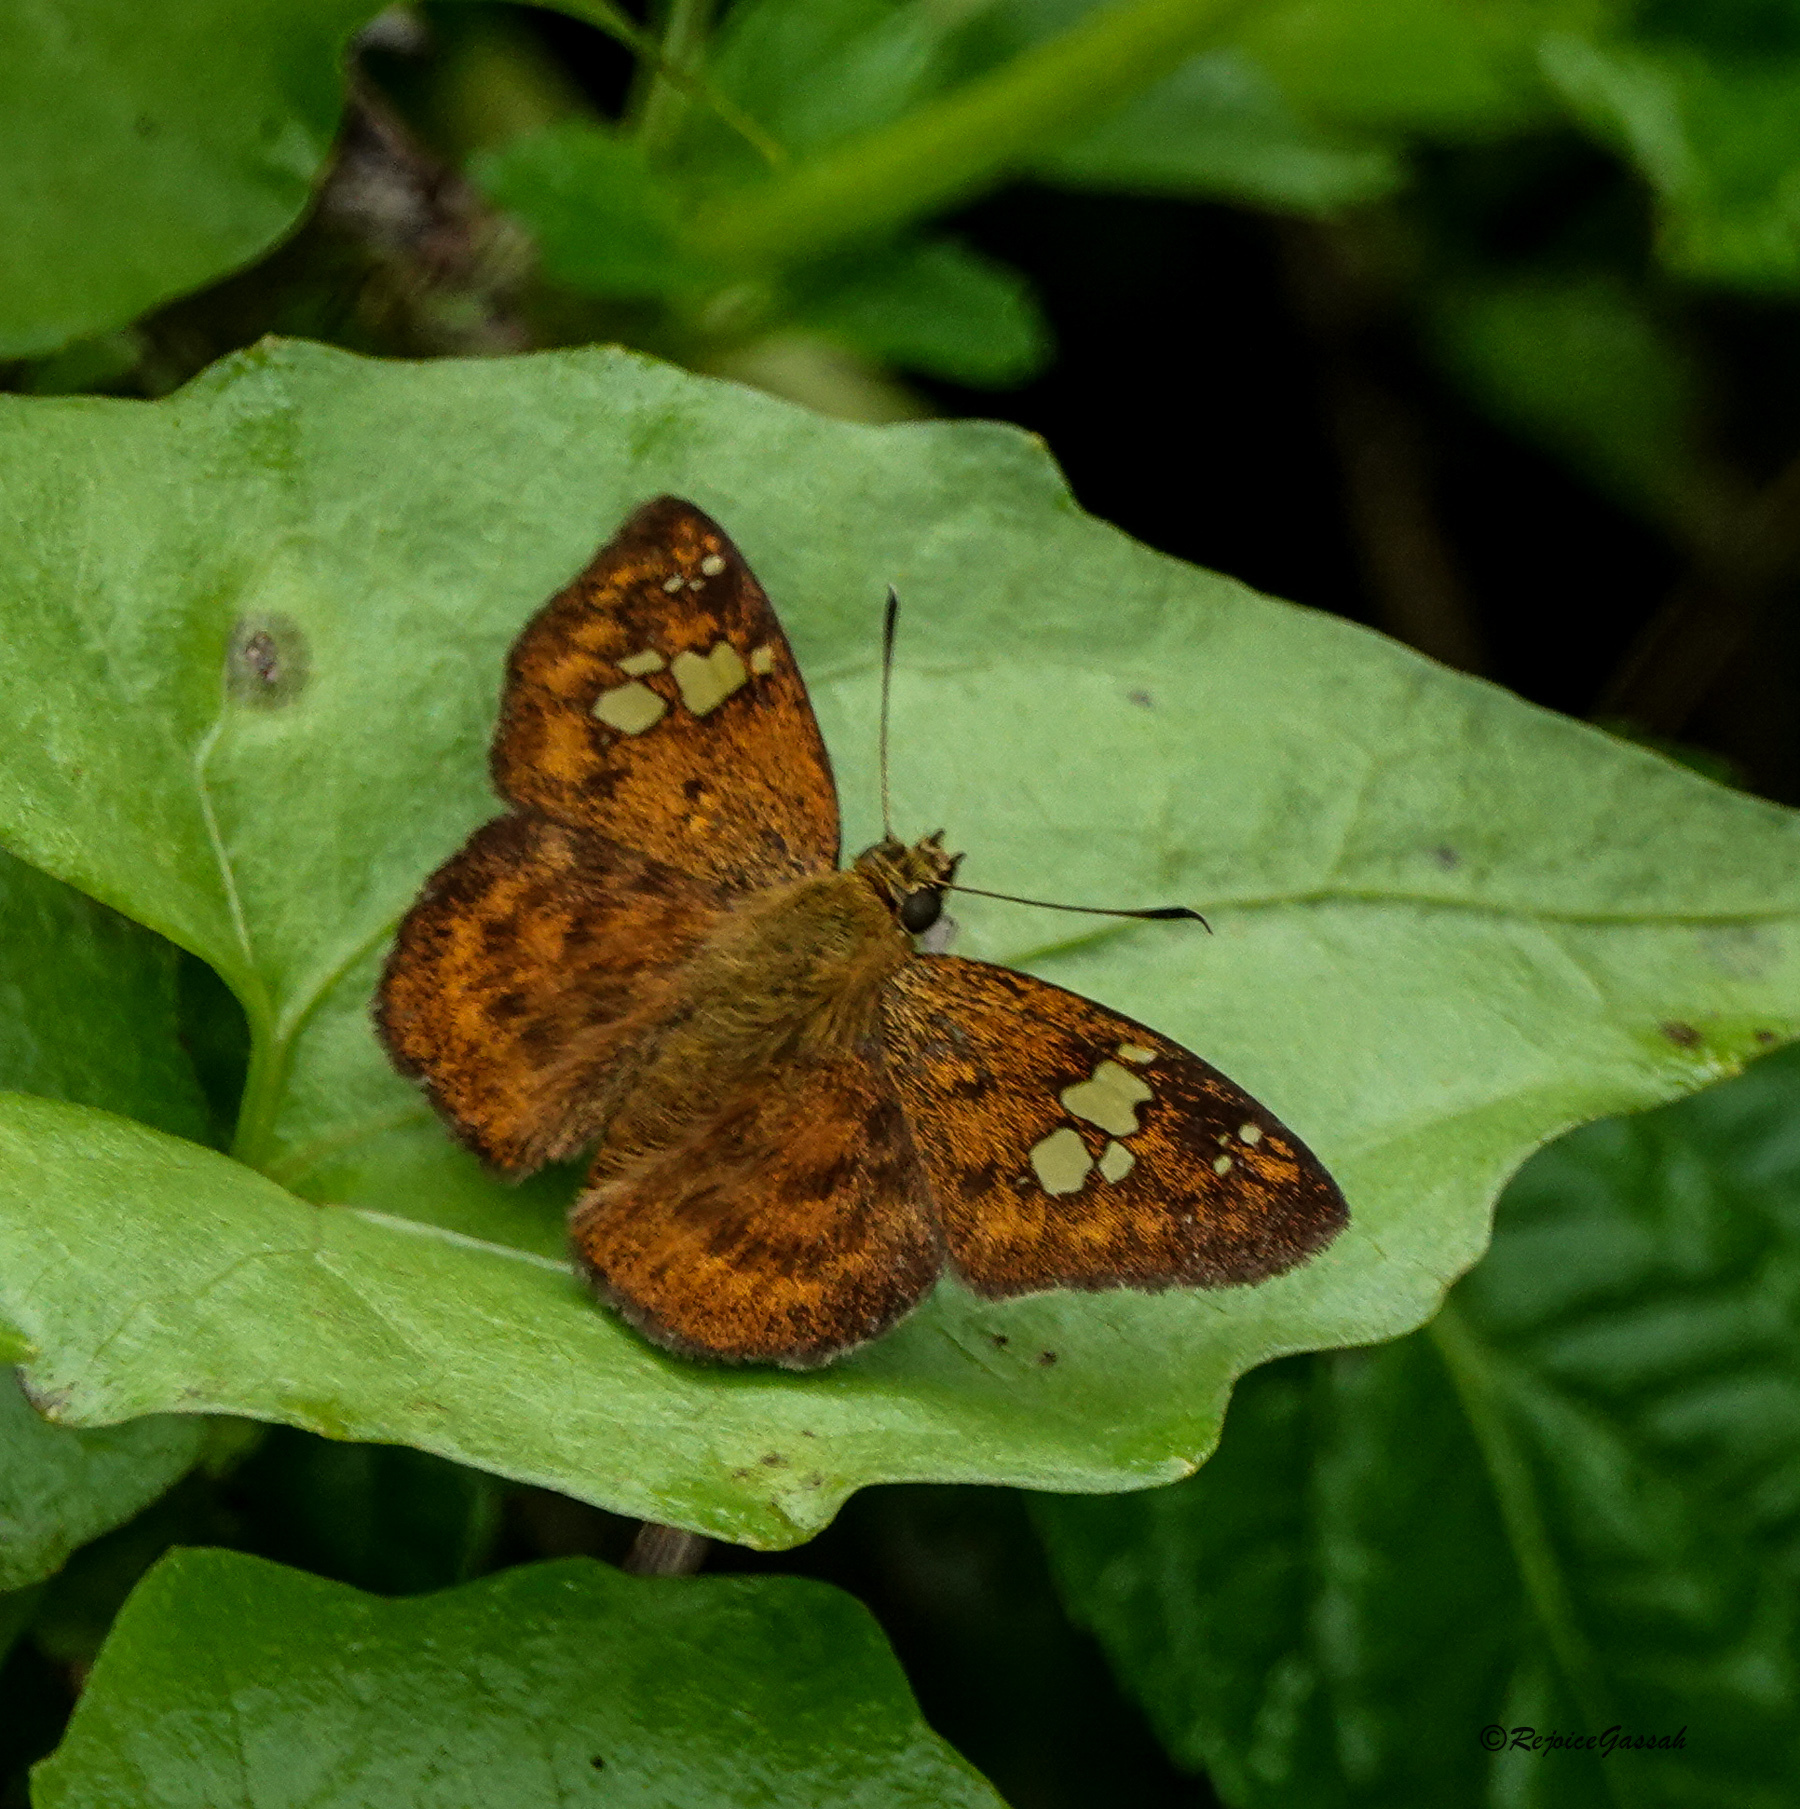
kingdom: Animalia
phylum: Arthropoda
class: Insecta
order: Lepidoptera
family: Hesperiidae
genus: Pseudocoladenia
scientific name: Pseudocoladenia dan
